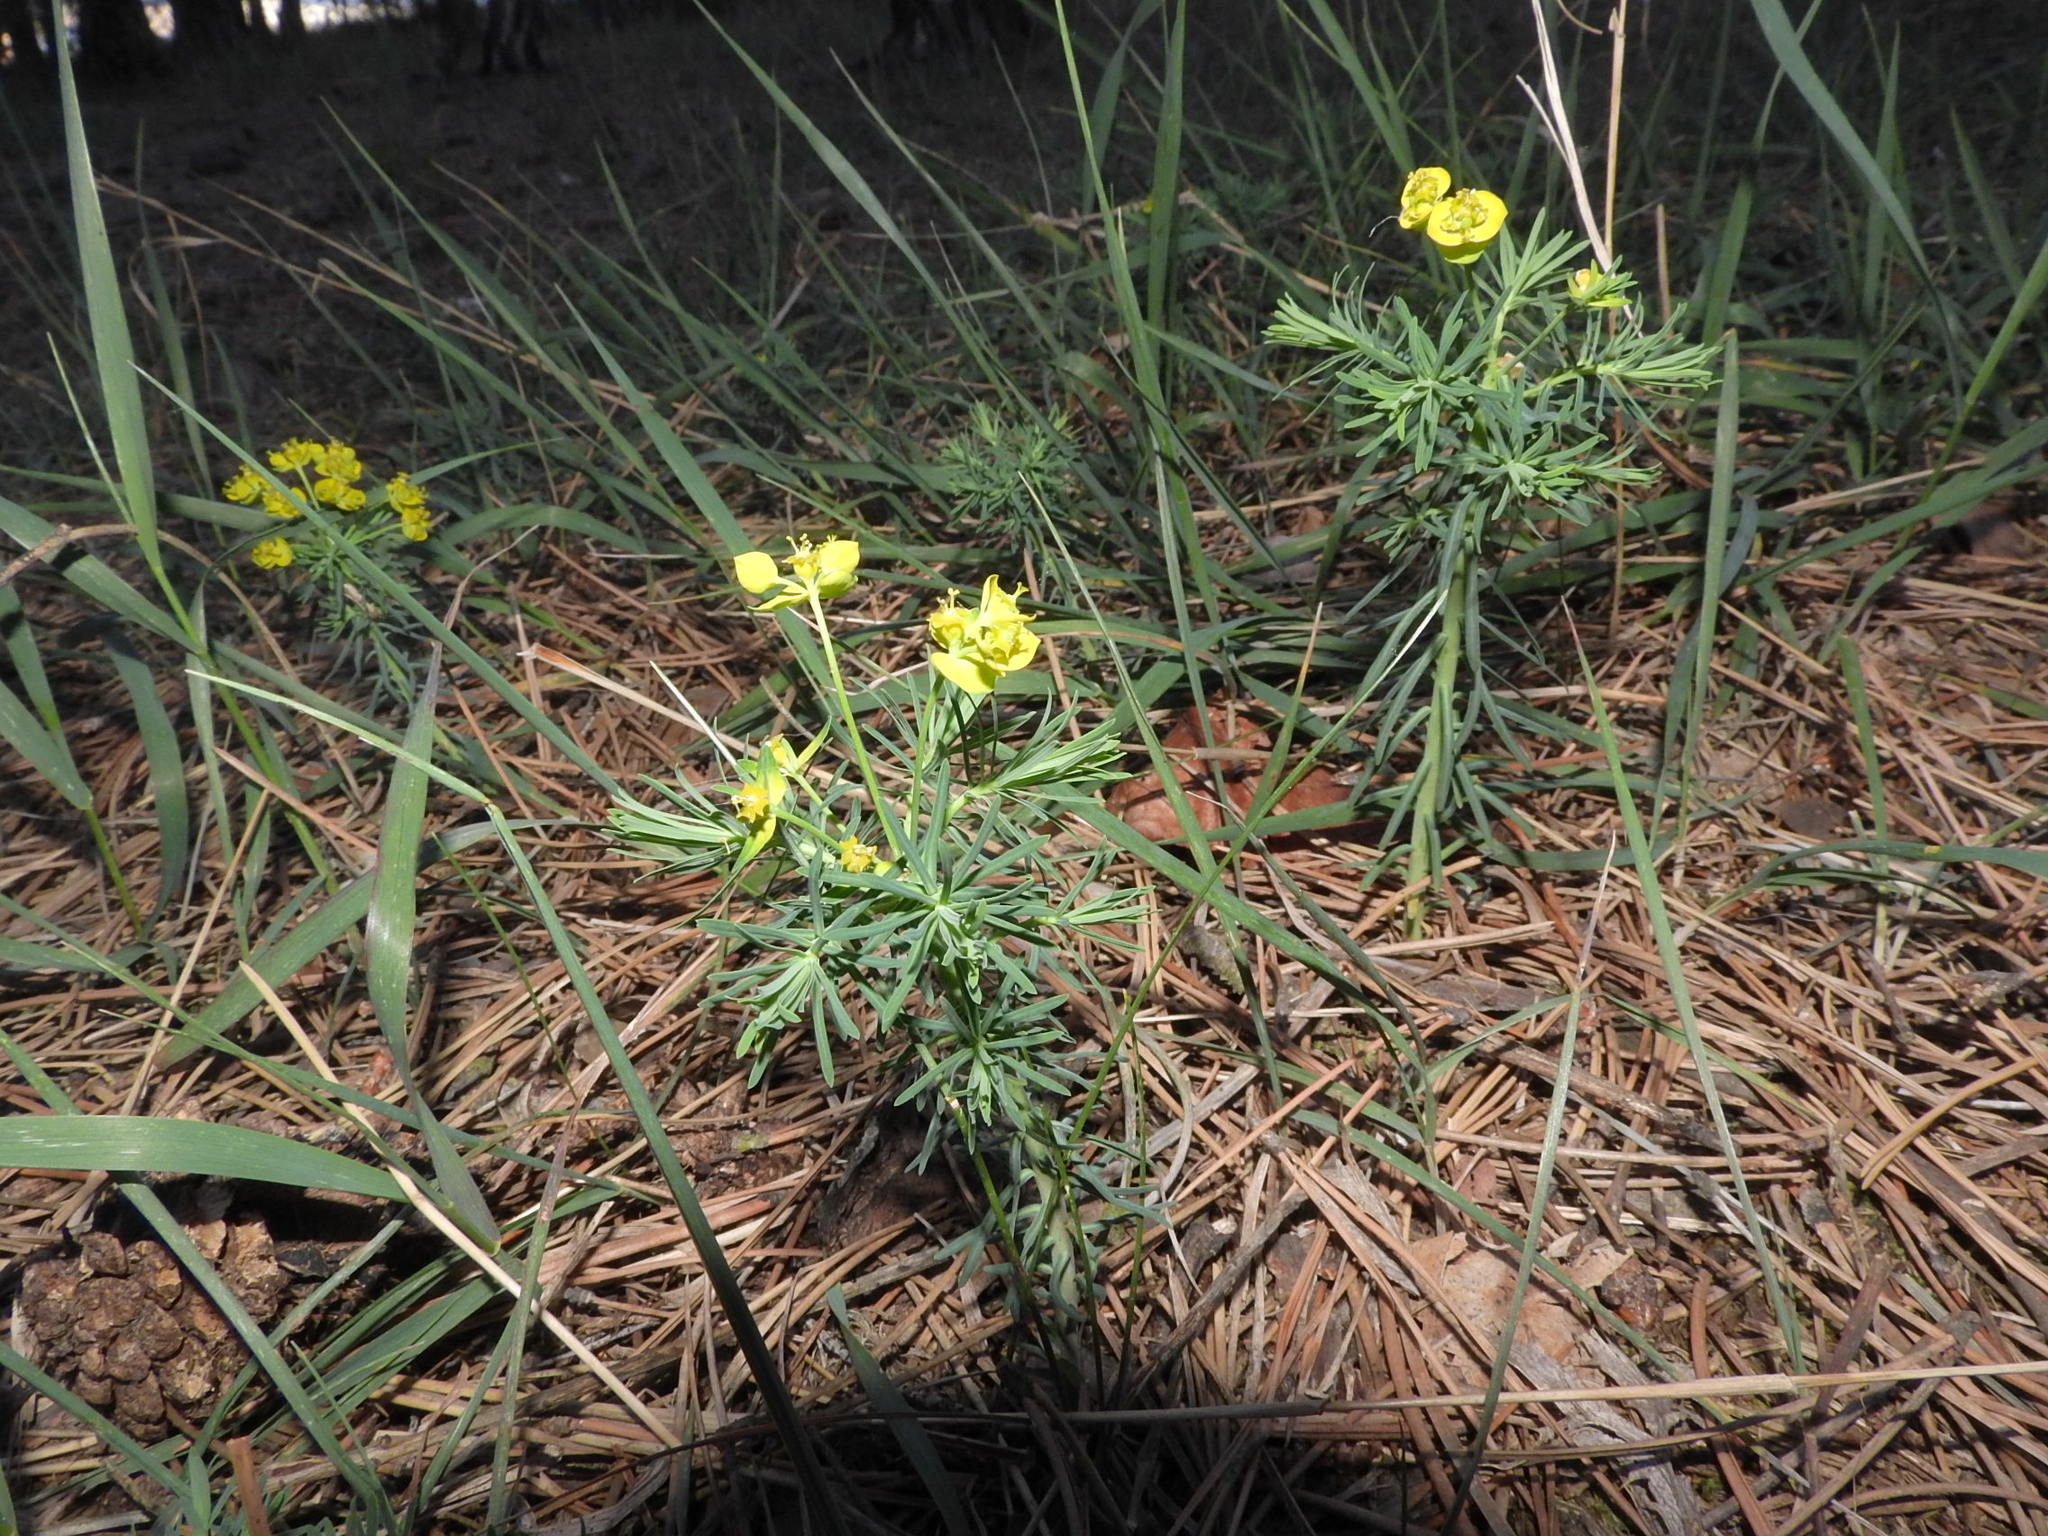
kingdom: Plantae
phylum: Tracheophyta
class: Magnoliopsida
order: Malpighiales
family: Euphorbiaceae
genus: Euphorbia
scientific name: Euphorbia cyparissias
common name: Cypress spurge
